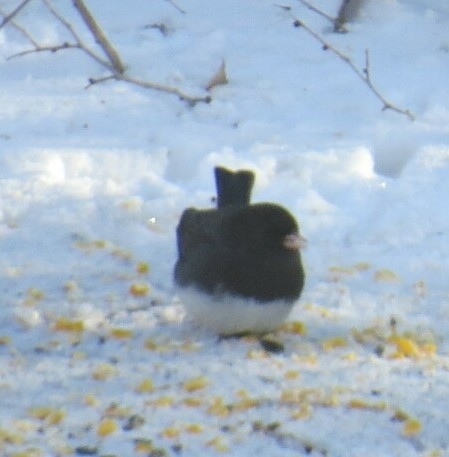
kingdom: Animalia
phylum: Chordata
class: Aves
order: Passeriformes
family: Passerellidae
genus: Junco
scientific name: Junco hyemalis
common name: Dark-eyed junco
